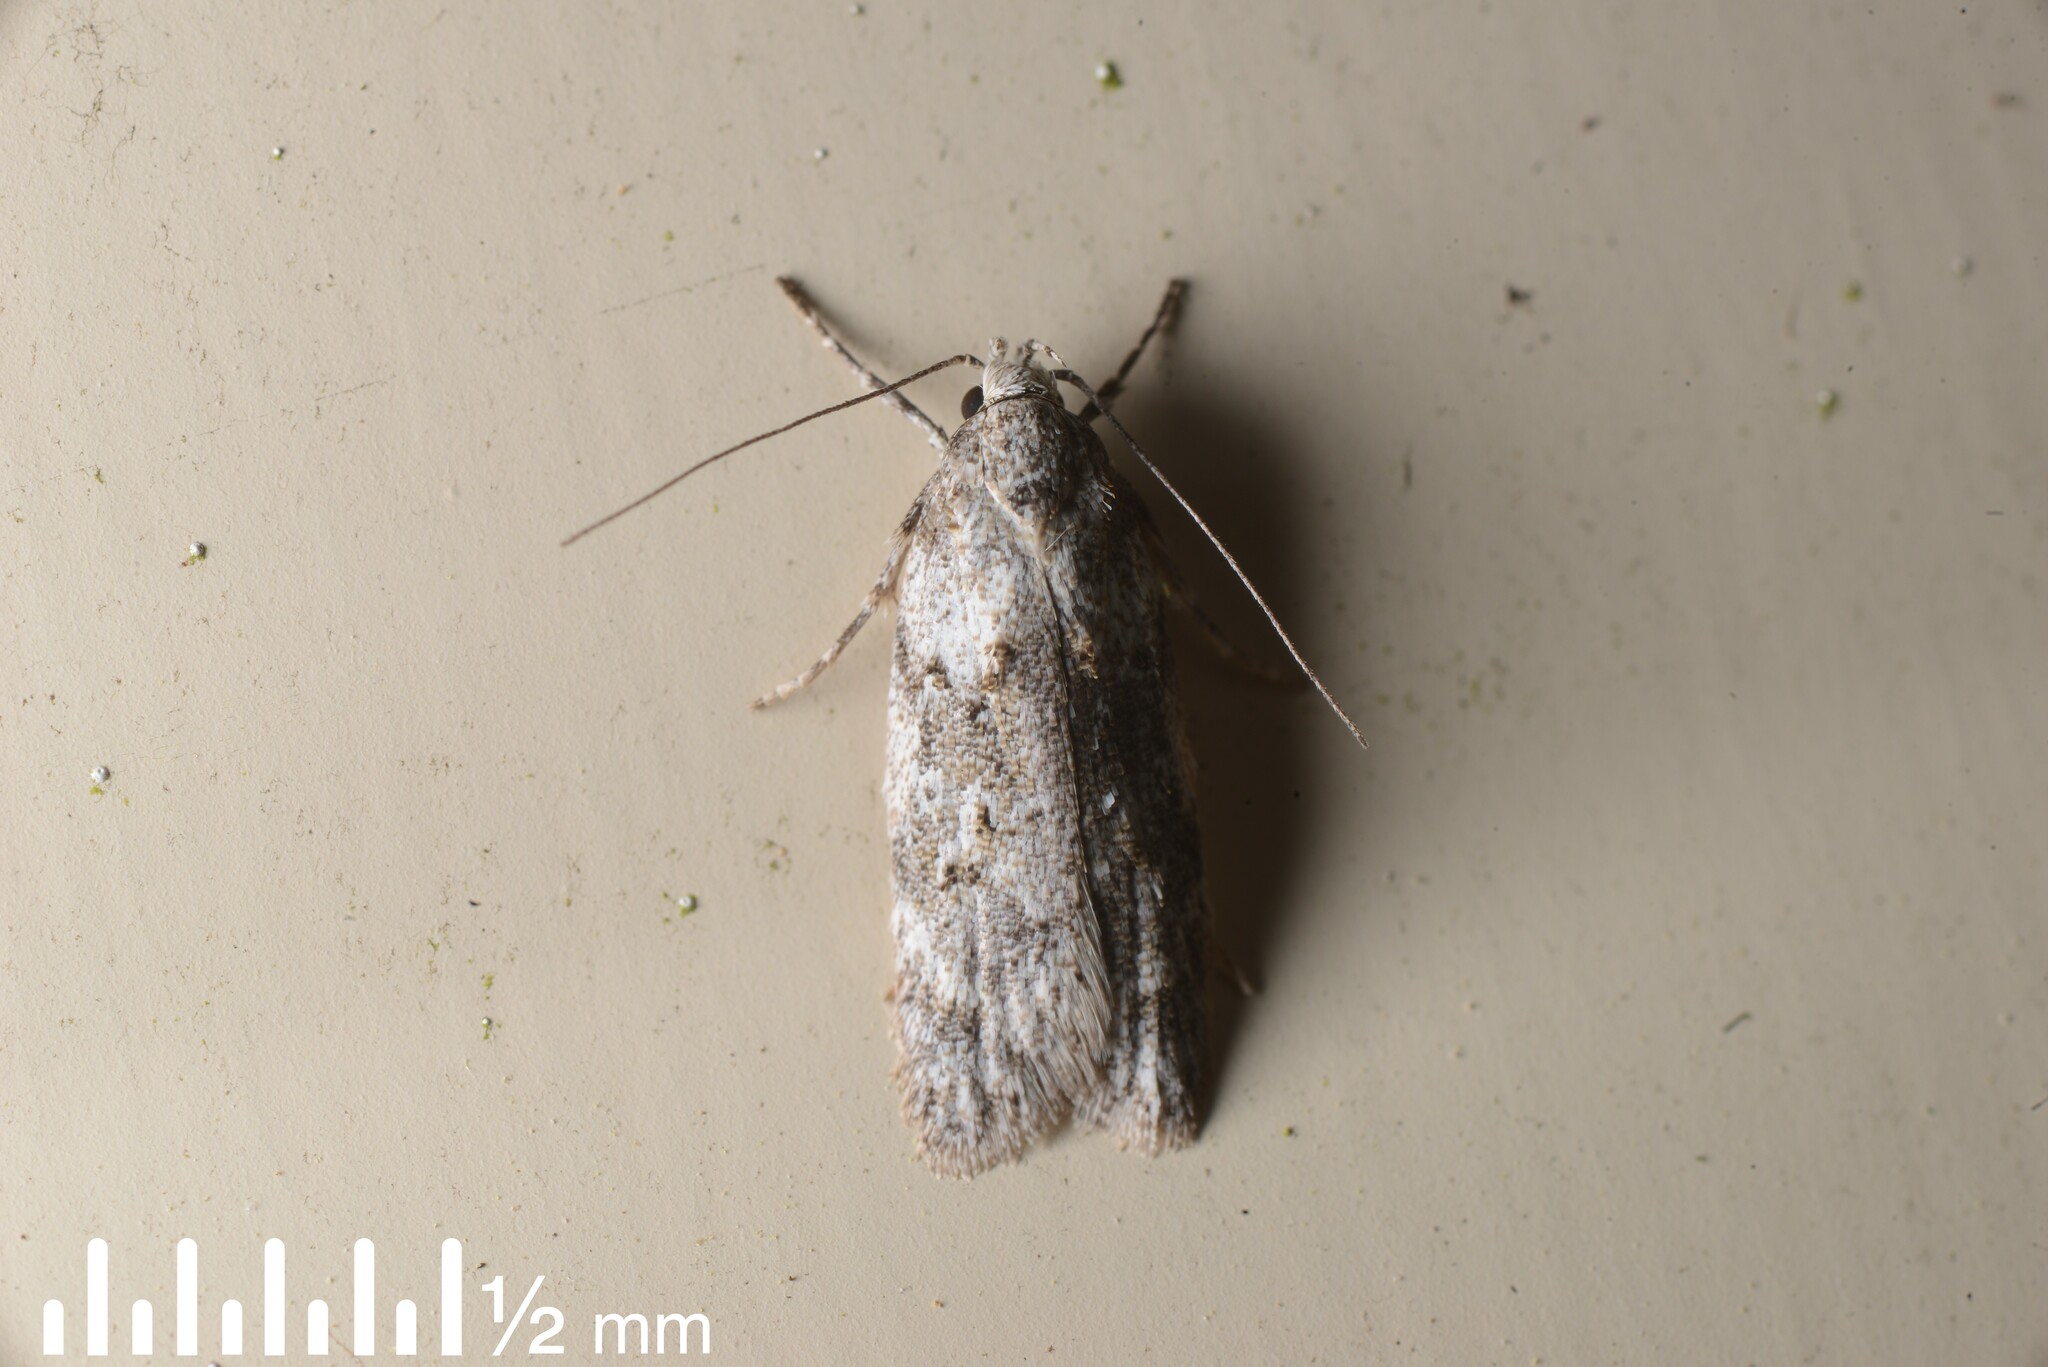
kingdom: Animalia
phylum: Arthropoda
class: Insecta
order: Lepidoptera
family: Oecophoridae
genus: Izatha
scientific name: Izatha convulsella
